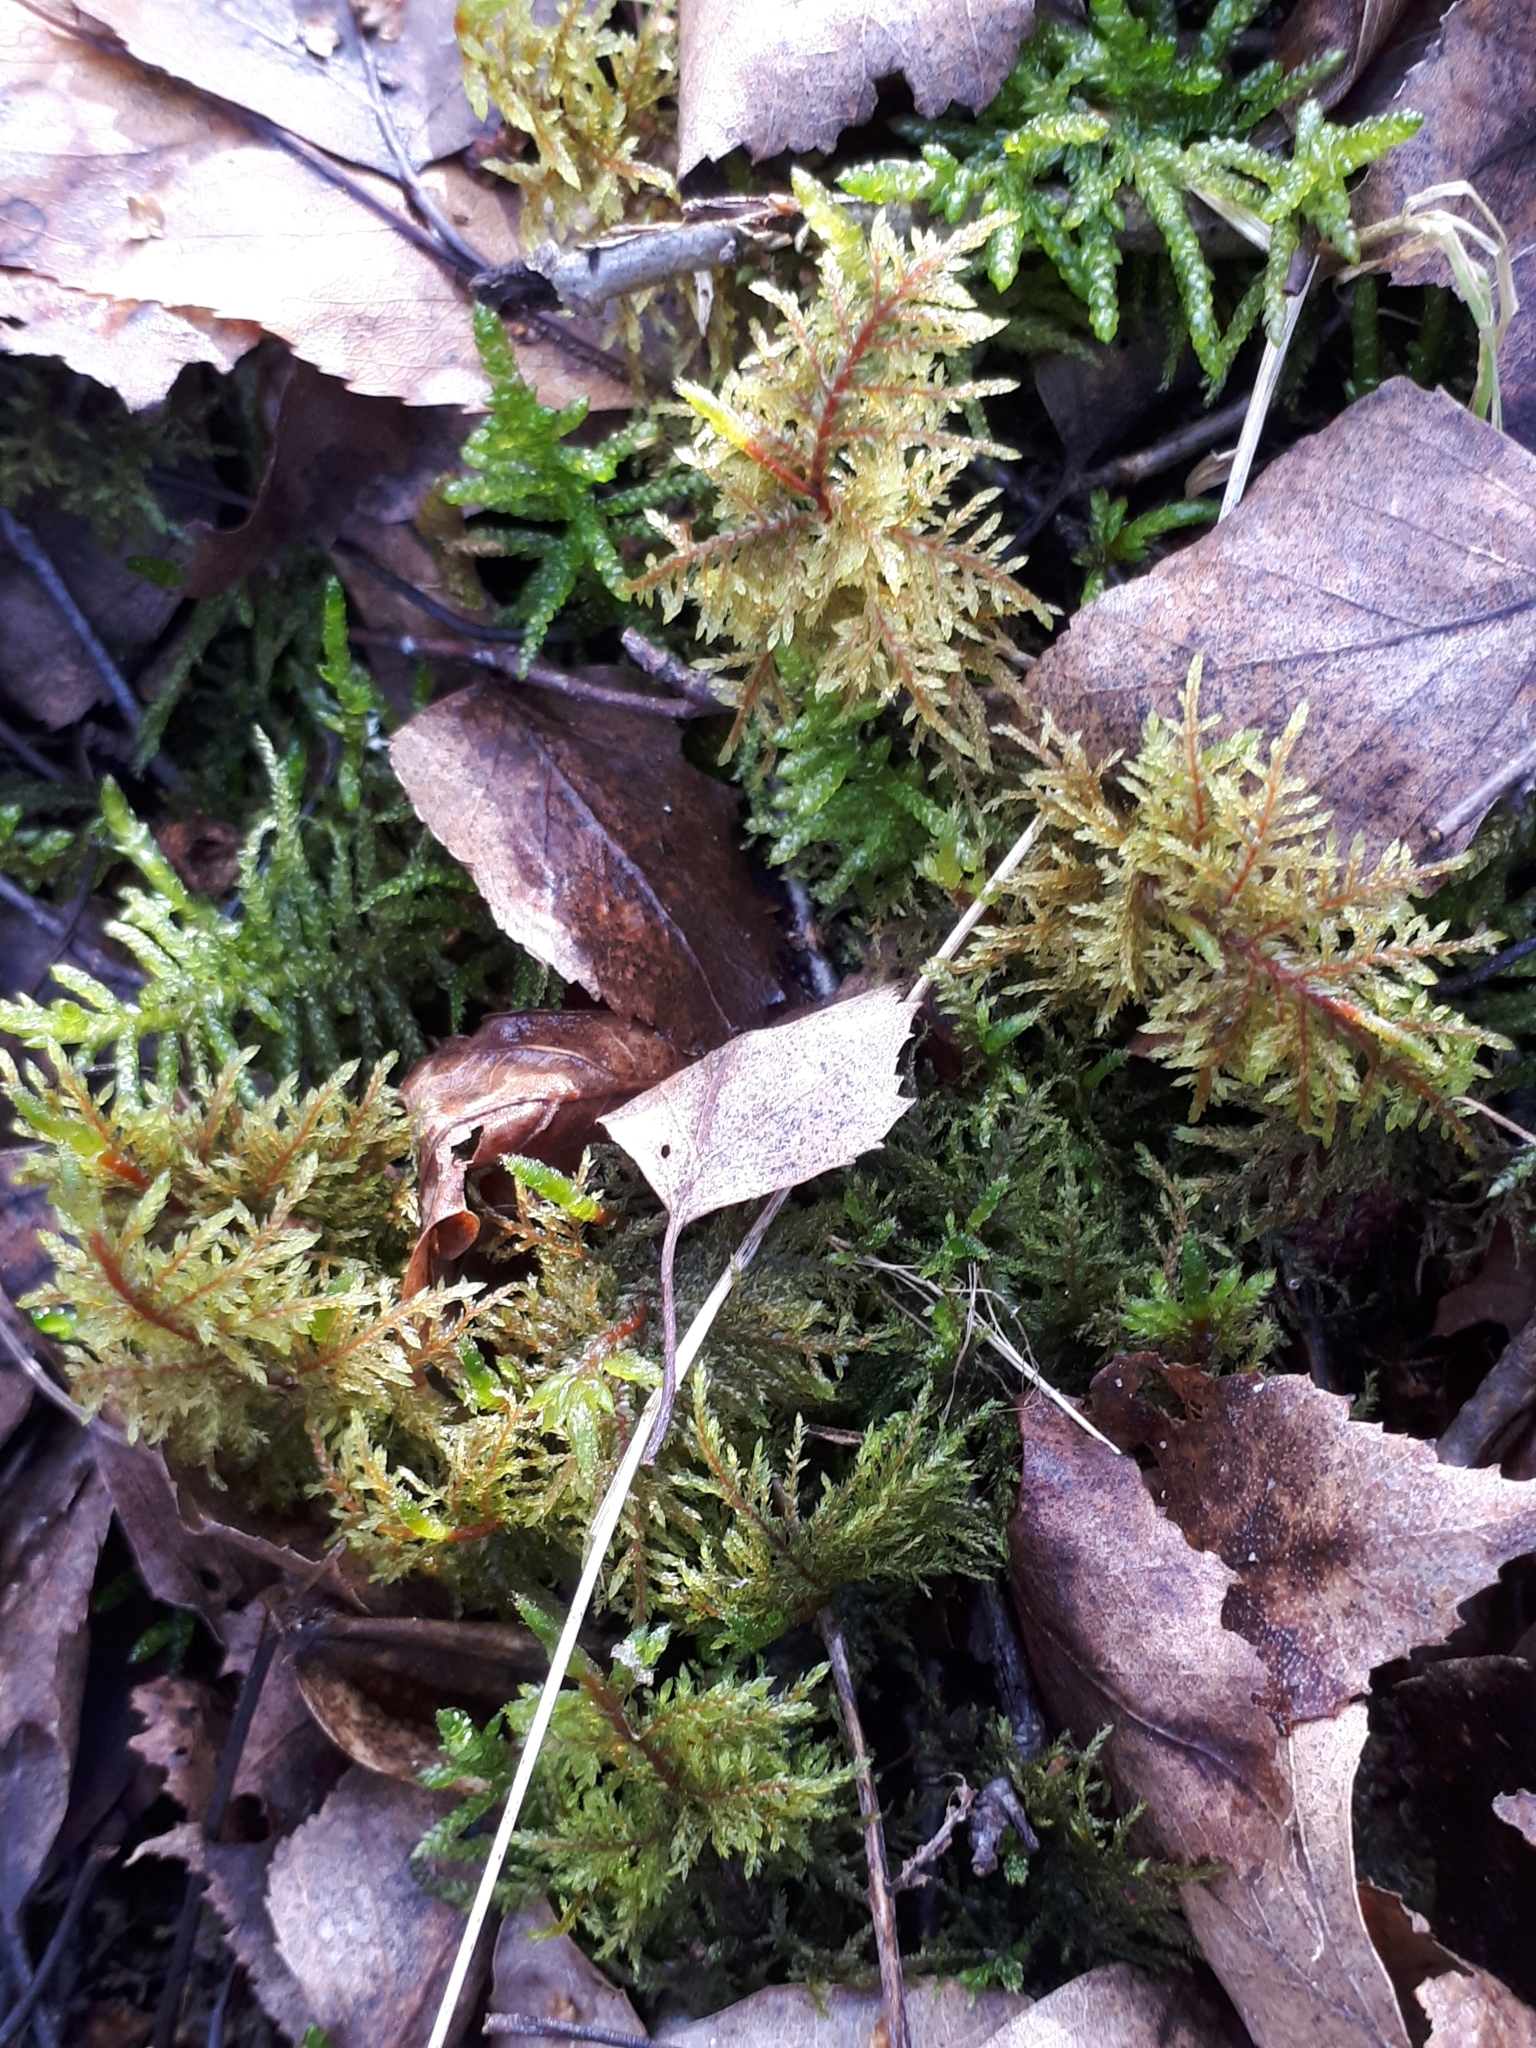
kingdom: Plantae
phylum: Bryophyta
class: Bryopsida
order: Hypnales
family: Hylocomiaceae
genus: Hylocomium
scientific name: Hylocomium splendens
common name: Stairstep moss
